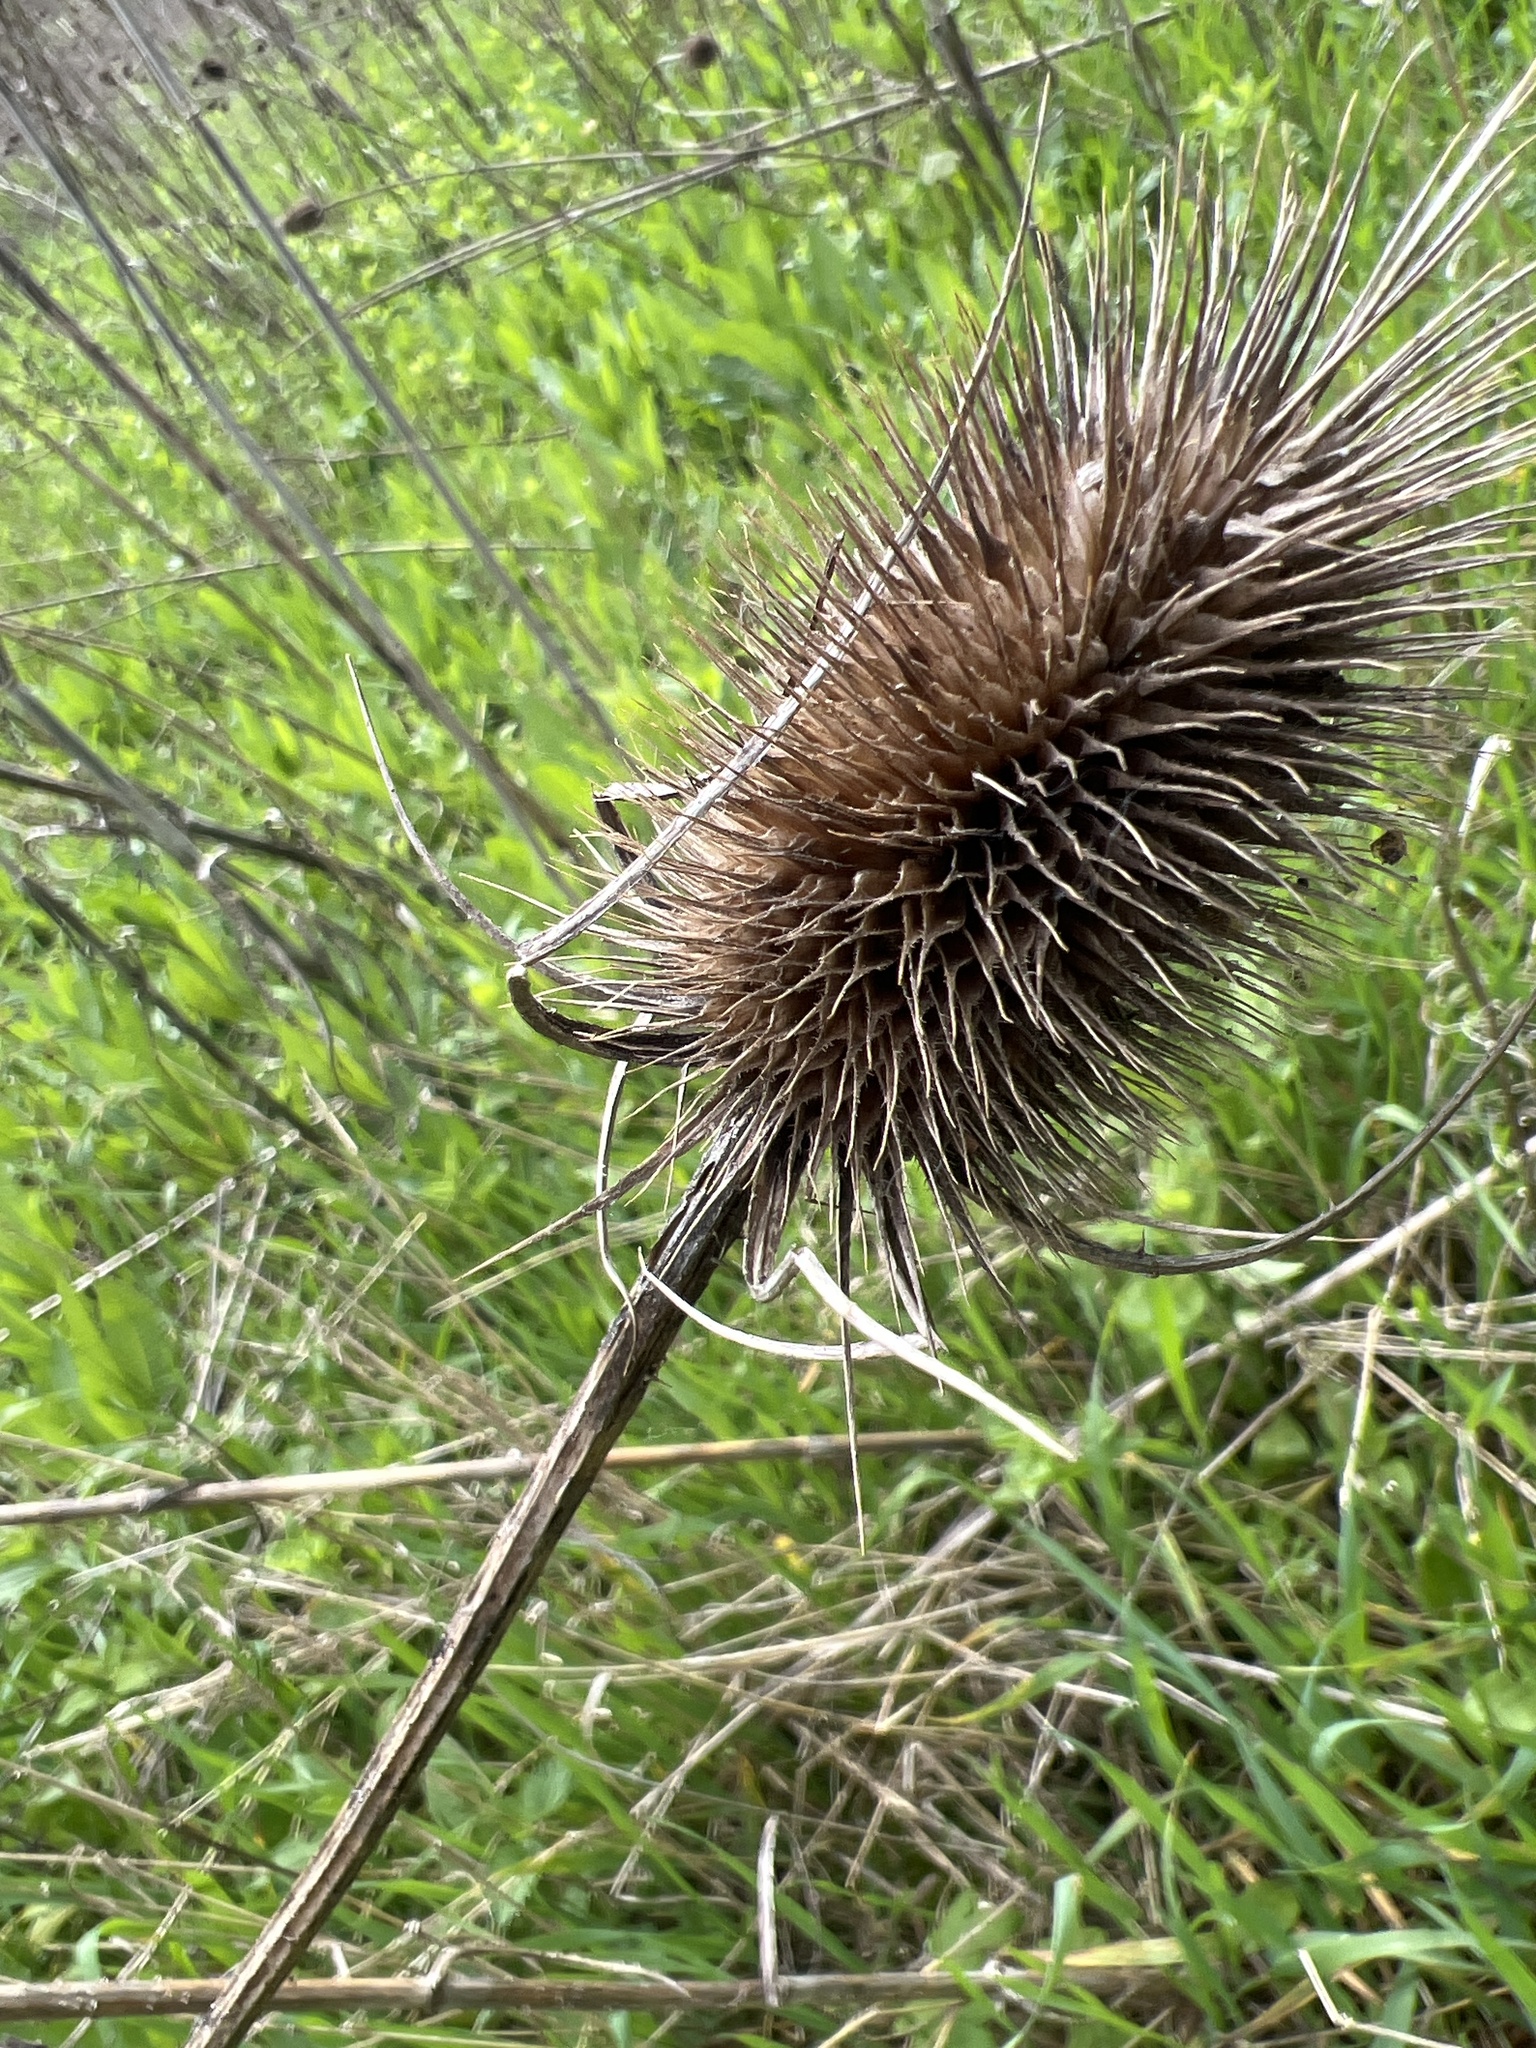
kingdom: Plantae
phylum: Tracheophyta
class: Magnoliopsida
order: Dipsacales
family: Caprifoliaceae
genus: Dipsacus
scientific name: Dipsacus fullonum
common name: Teasel
